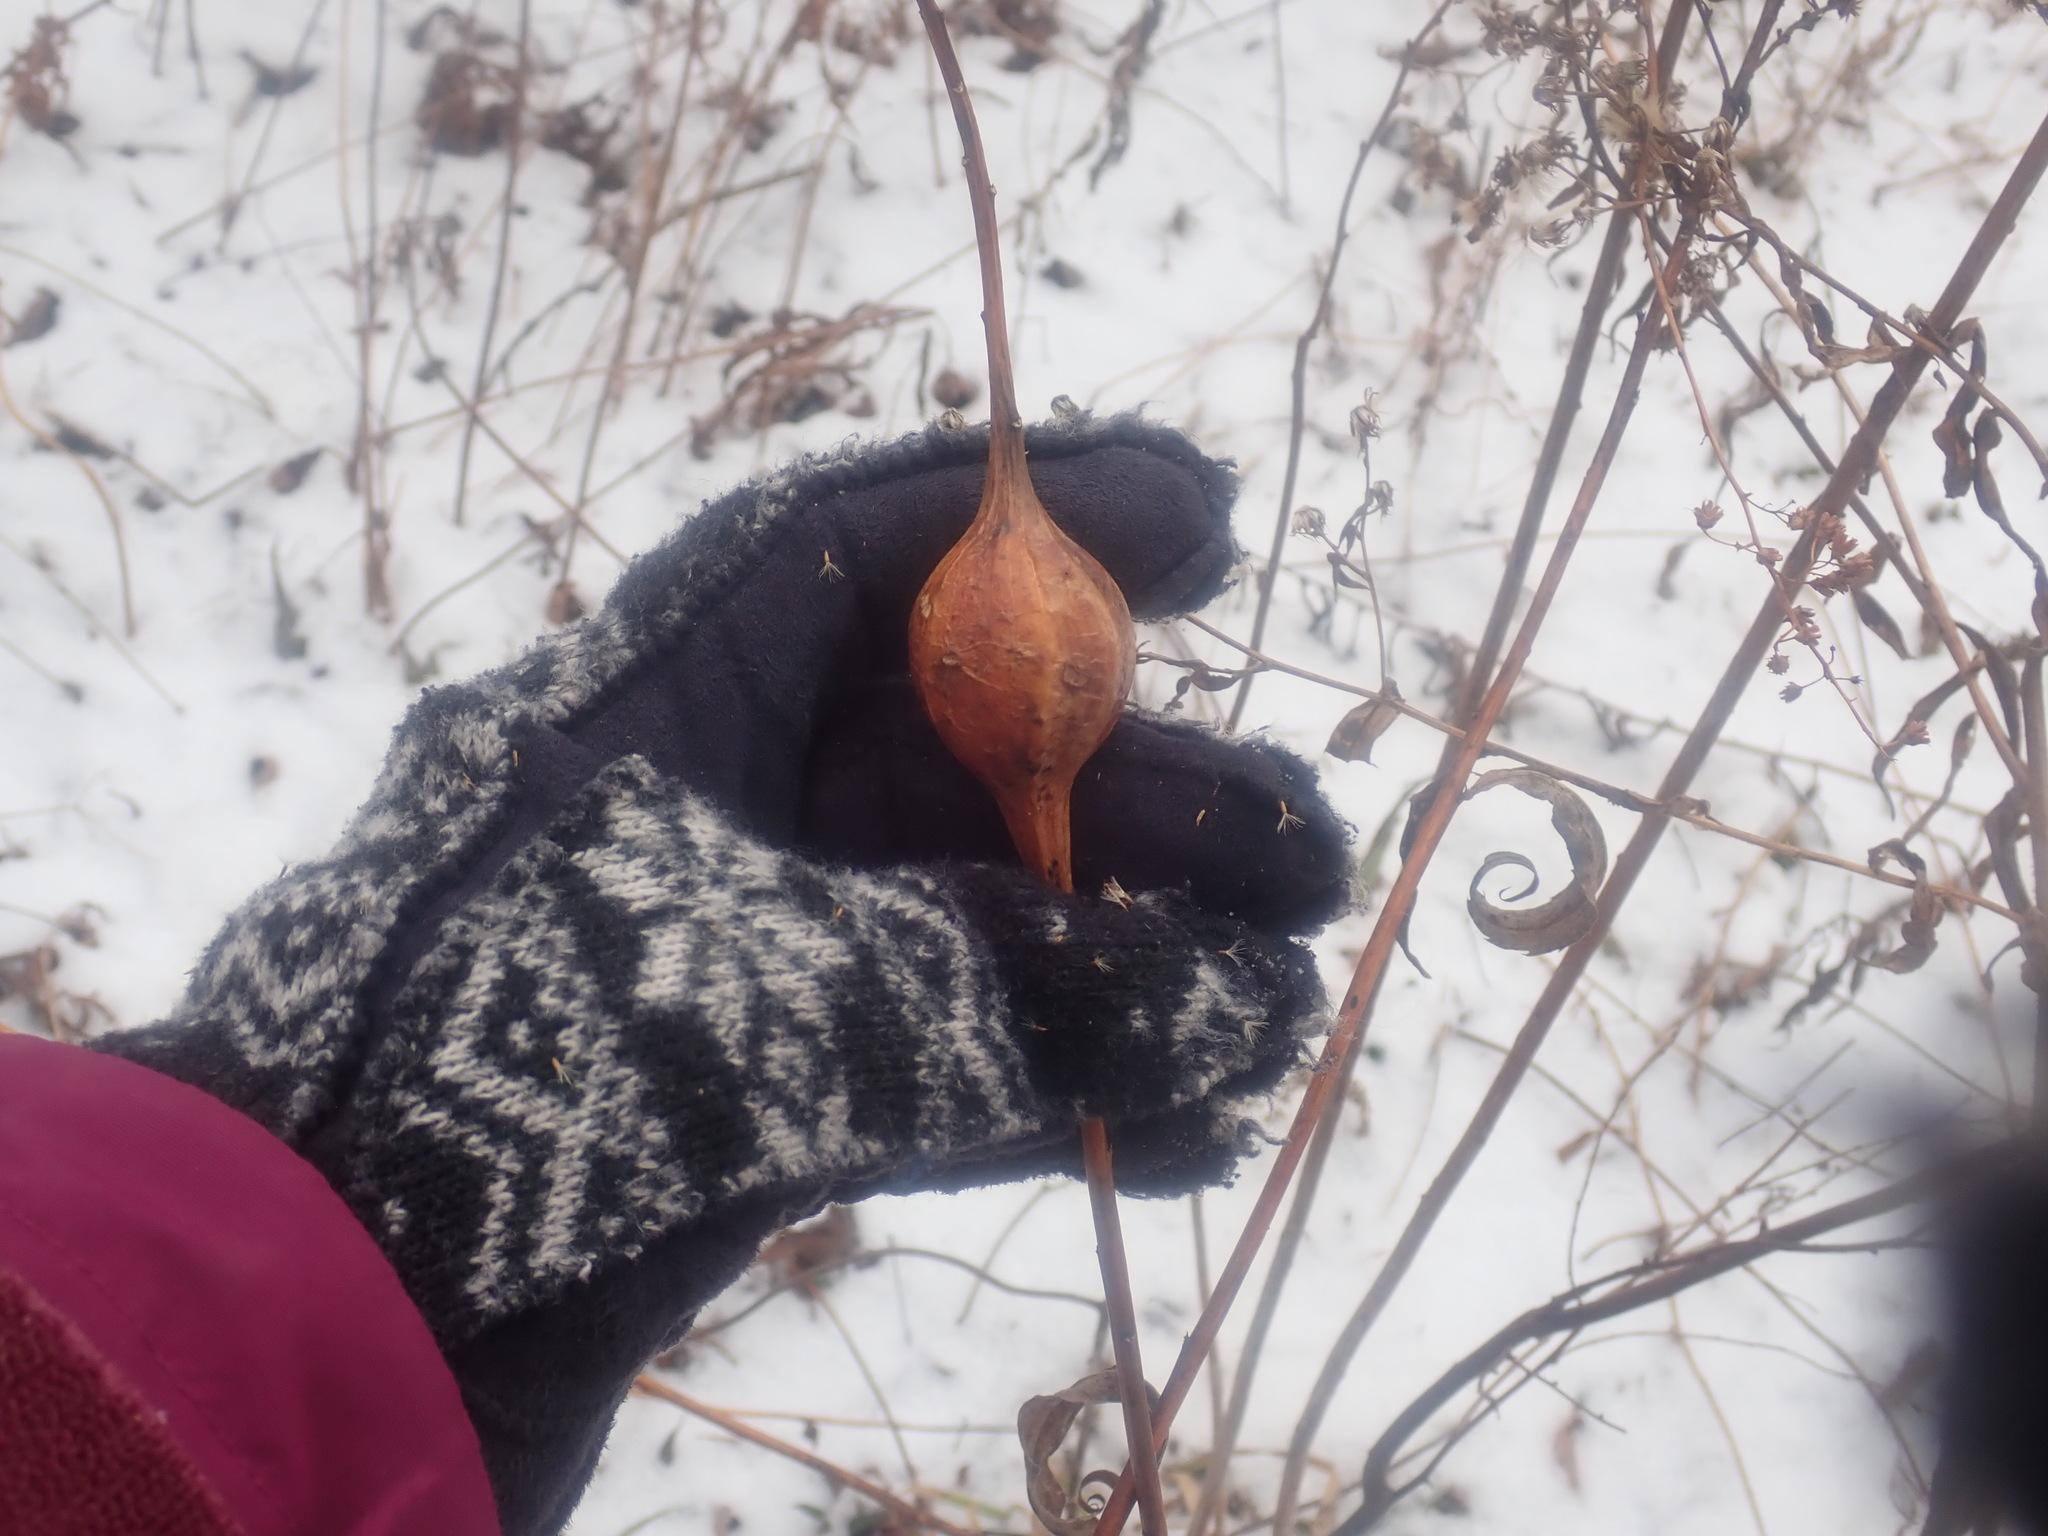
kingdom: Animalia
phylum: Arthropoda
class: Insecta
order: Diptera
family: Tephritidae
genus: Eurosta
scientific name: Eurosta solidaginis
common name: Goldenrod gall fly
